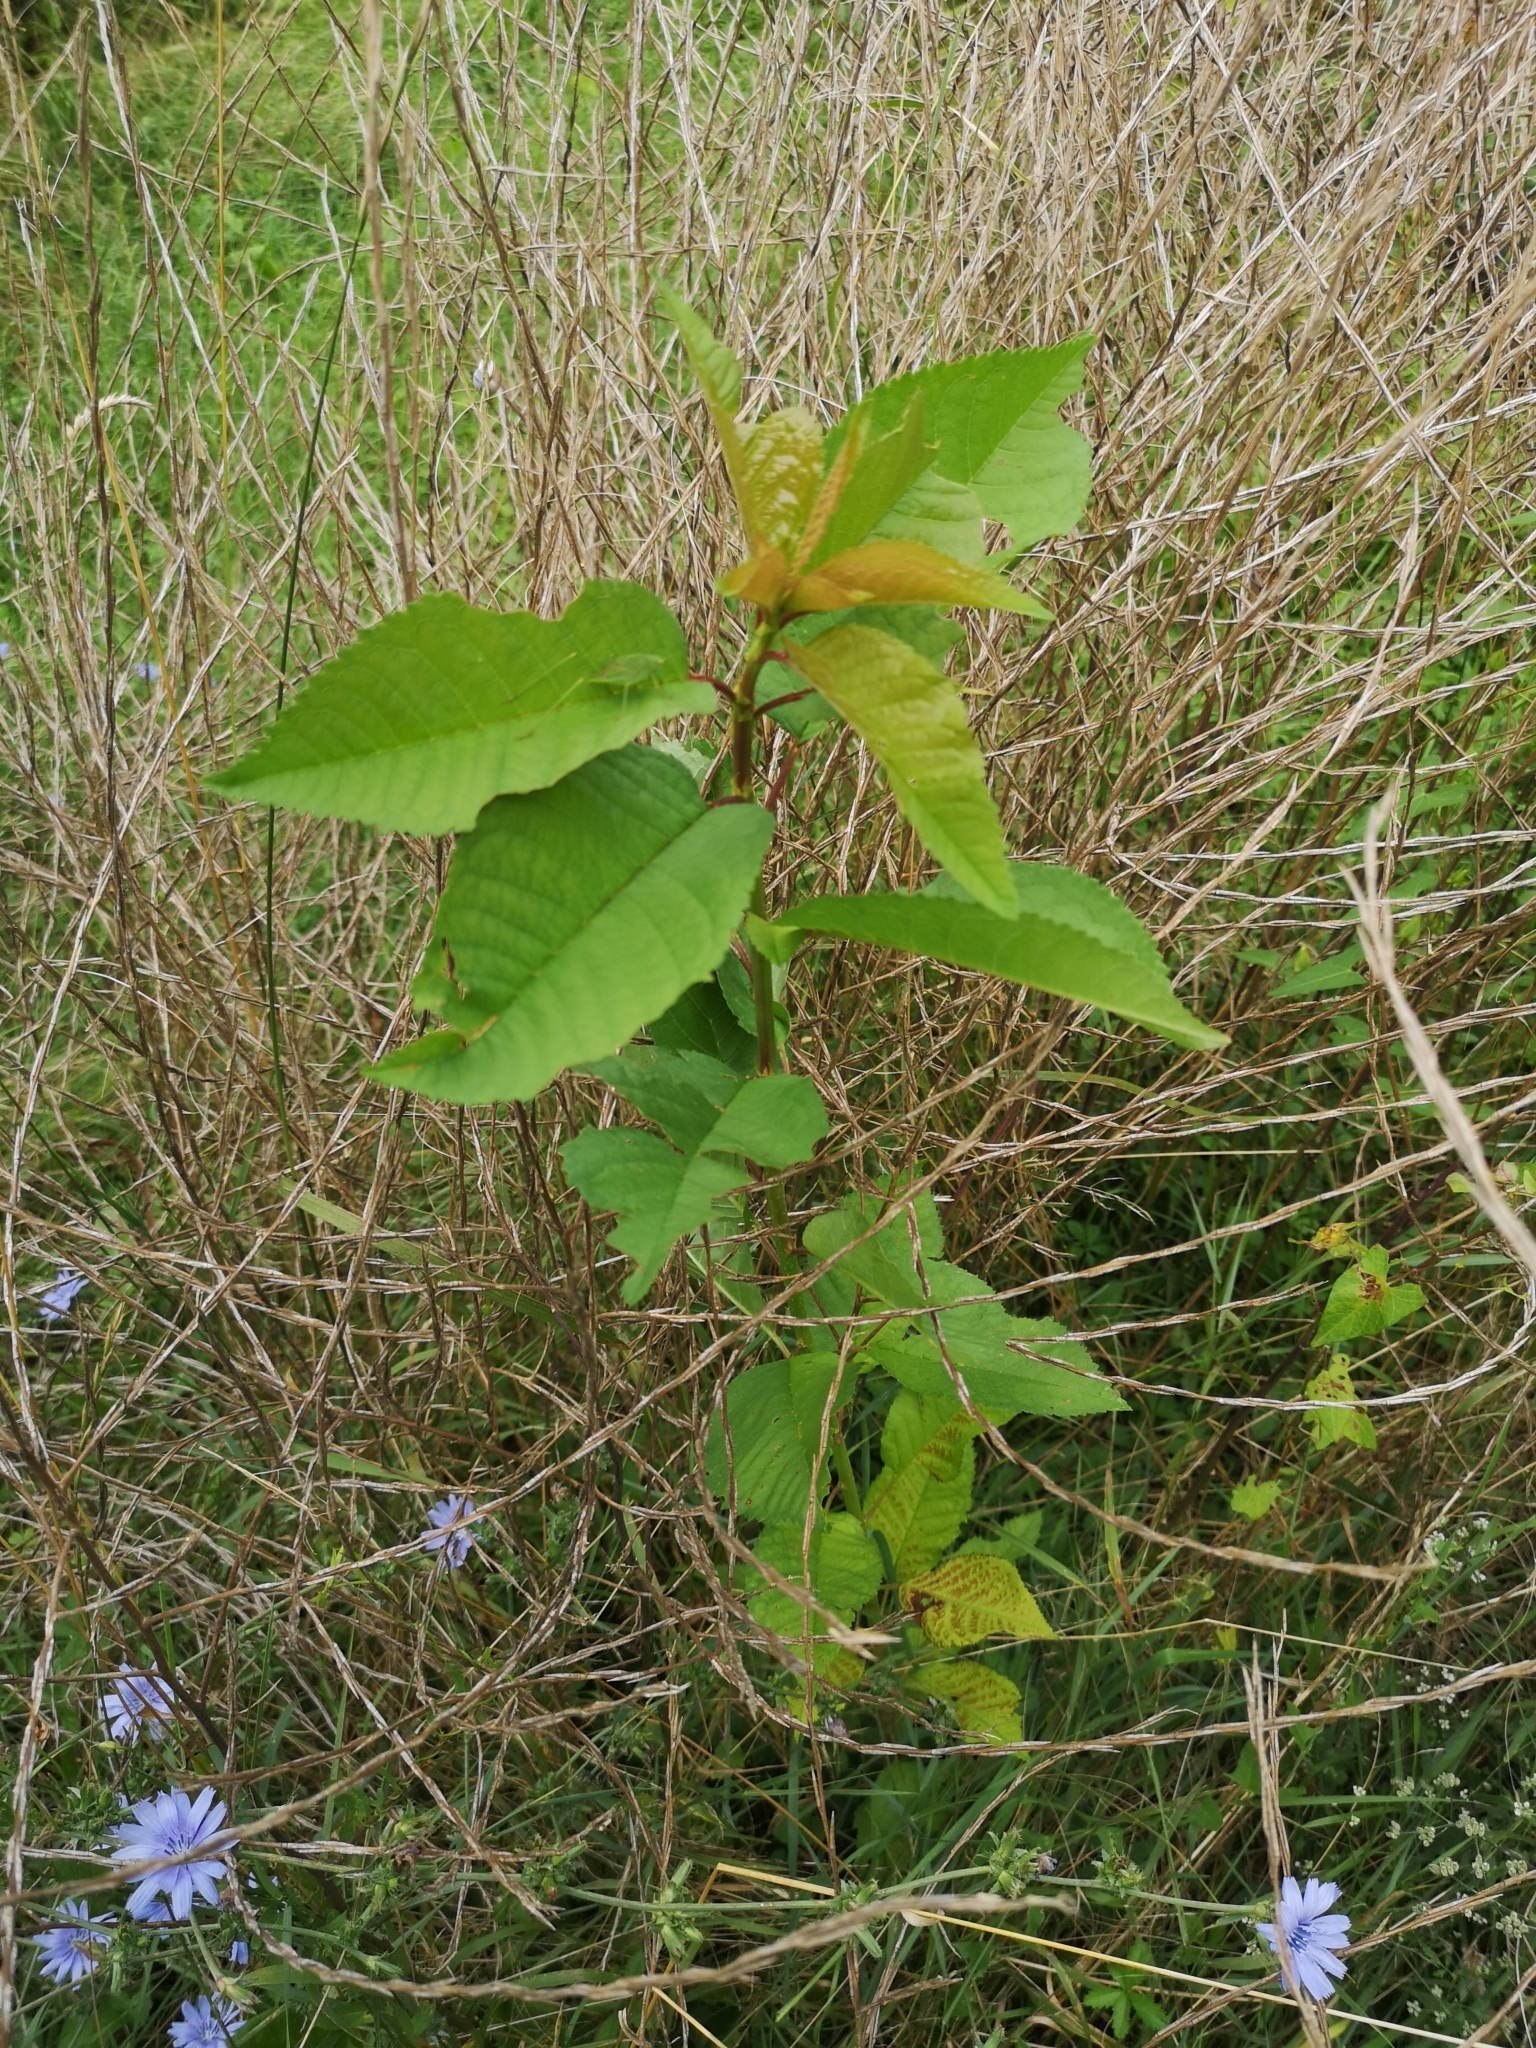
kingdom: Plantae
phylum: Tracheophyta
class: Magnoliopsida
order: Rosales
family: Rosaceae
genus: Prunus
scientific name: Prunus avium
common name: Sweet cherry
